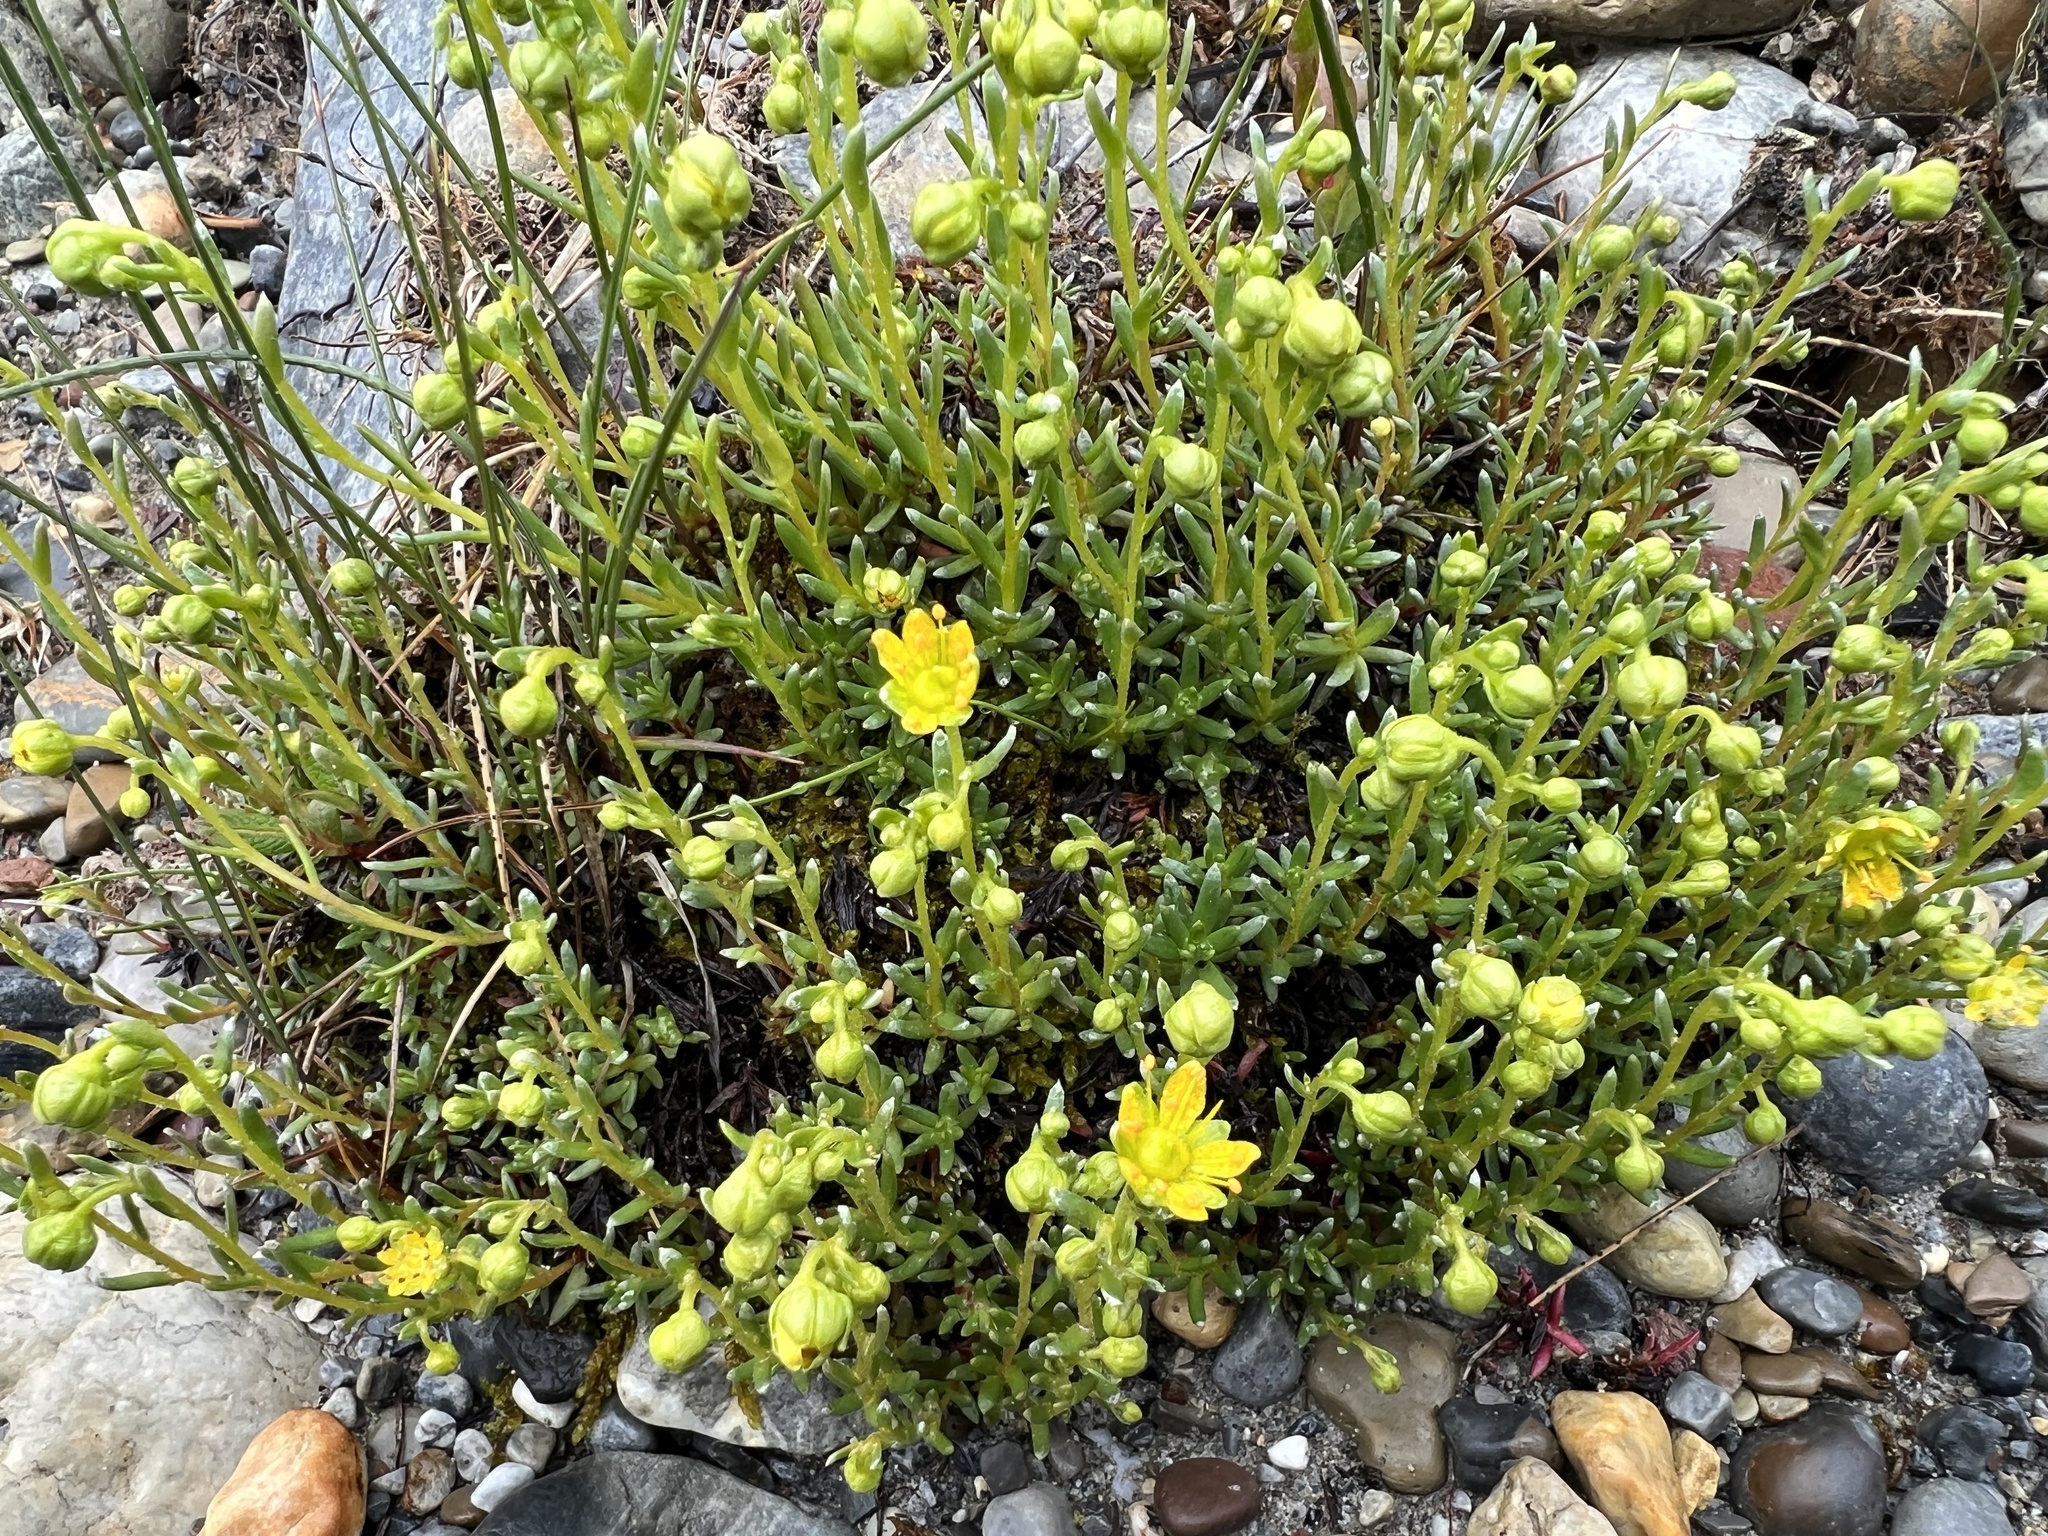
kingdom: Plantae
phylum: Tracheophyta
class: Magnoliopsida
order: Saxifragales
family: Saxifragaceae
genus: Saxifraga
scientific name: Saxifraga aizoides
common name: Yellow mountain saxifrage
